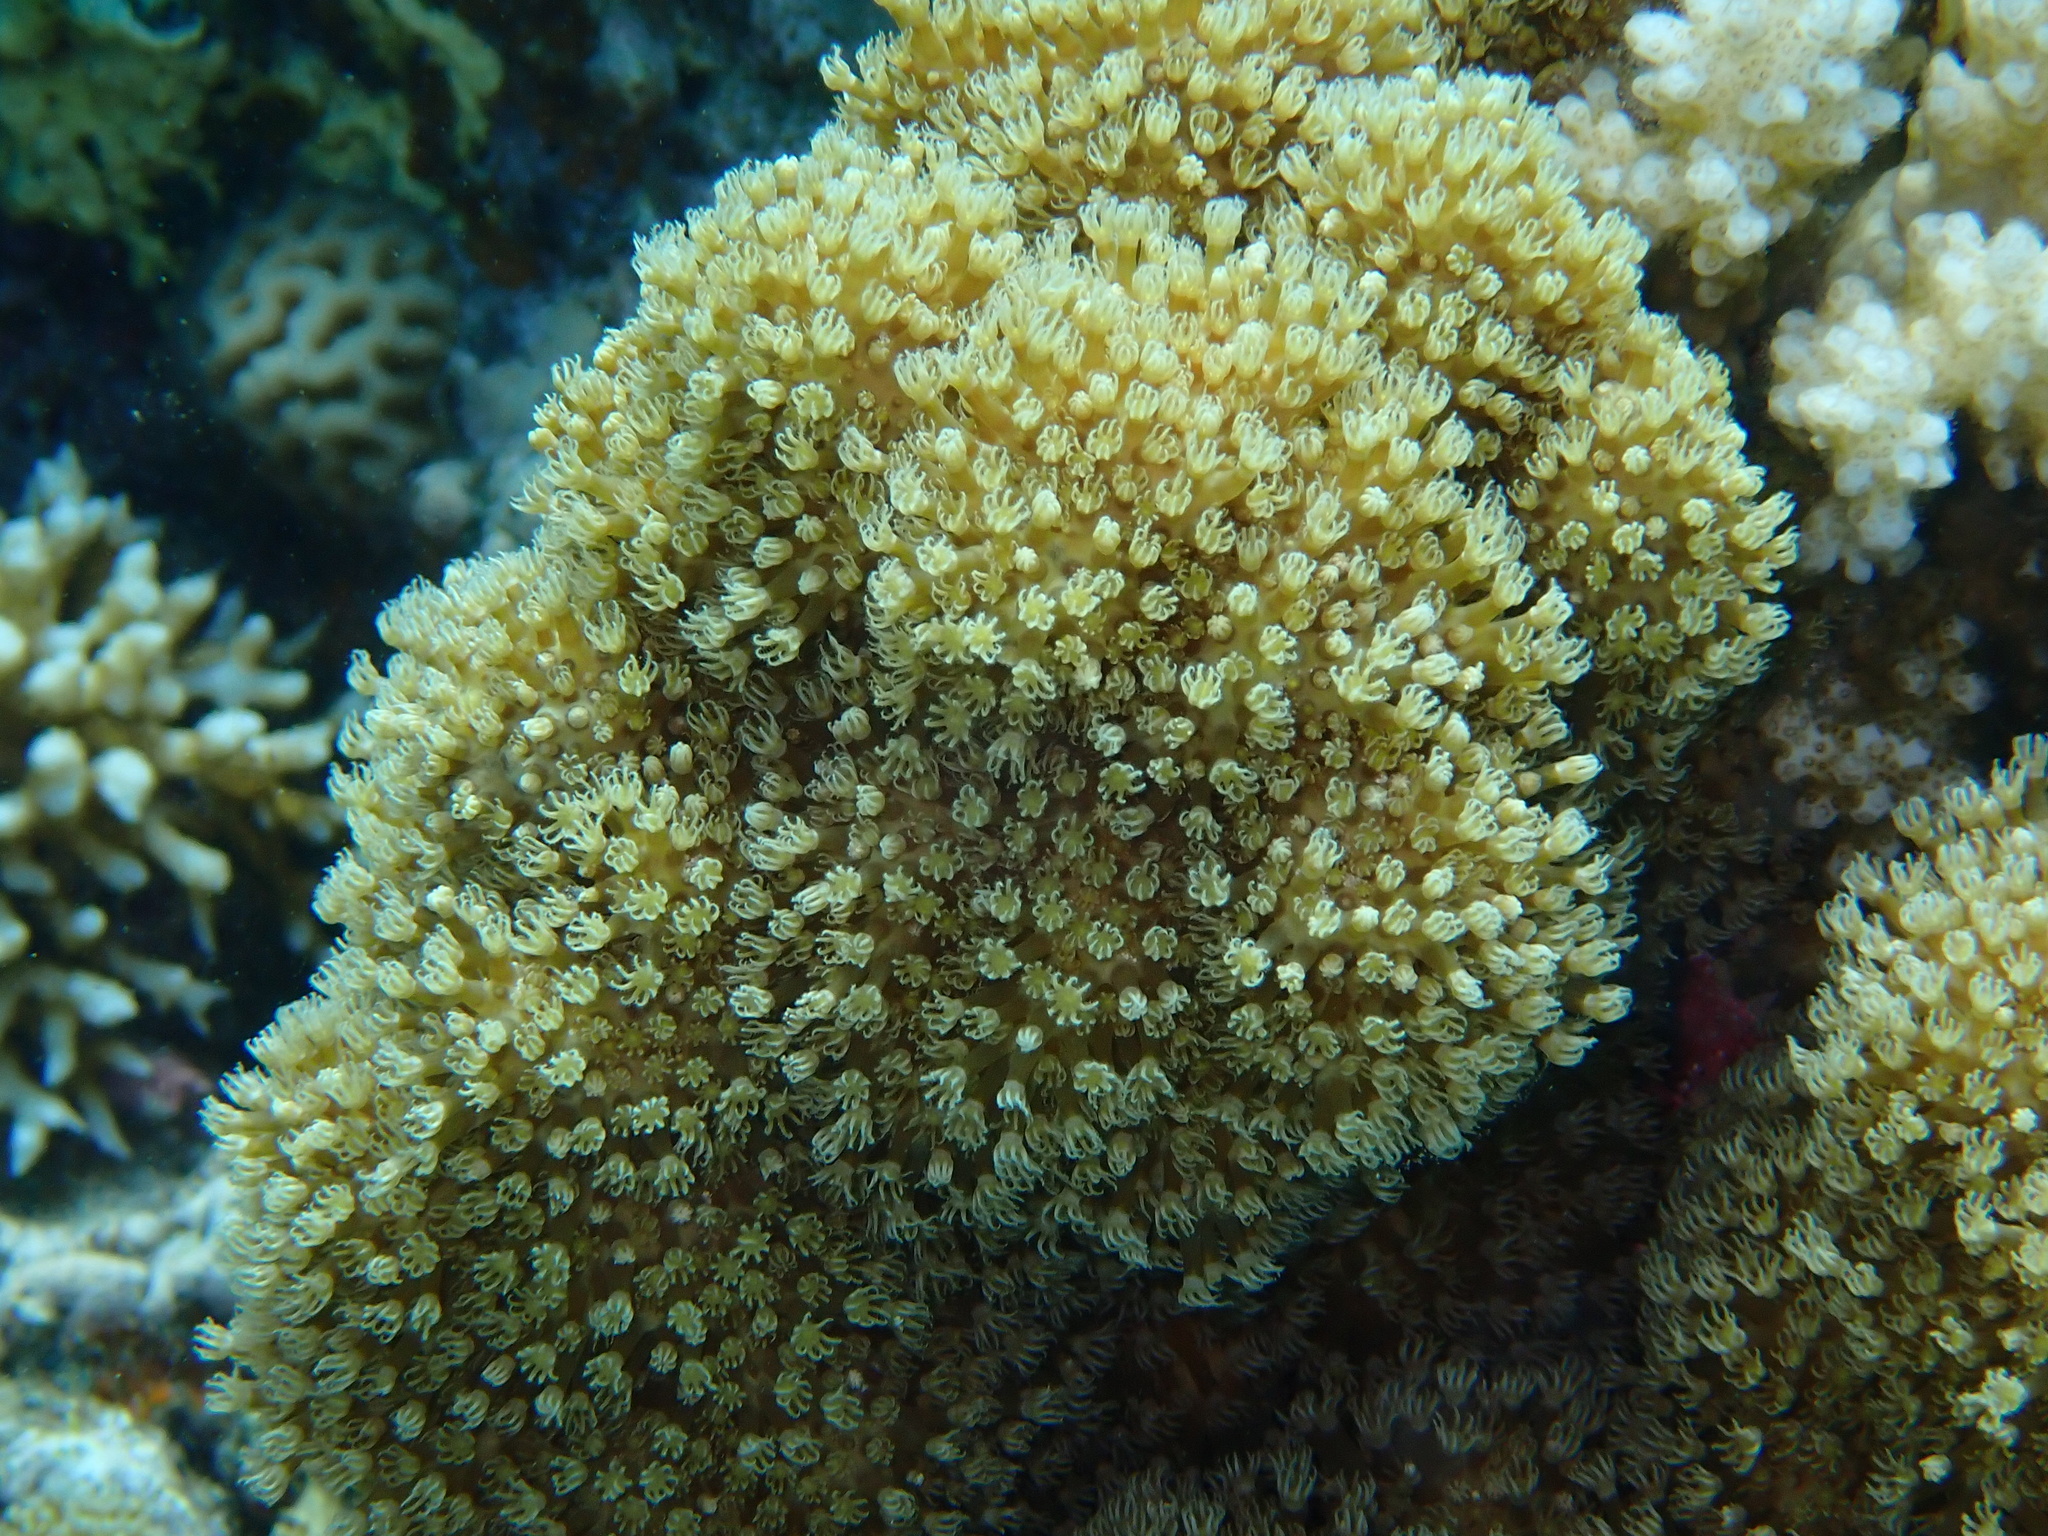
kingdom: Animalia
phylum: Cnidaria
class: Anthozoa
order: Malacalcyonacea
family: Lemnaliadae
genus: Rhytisma
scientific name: Rhytisma fulvum
